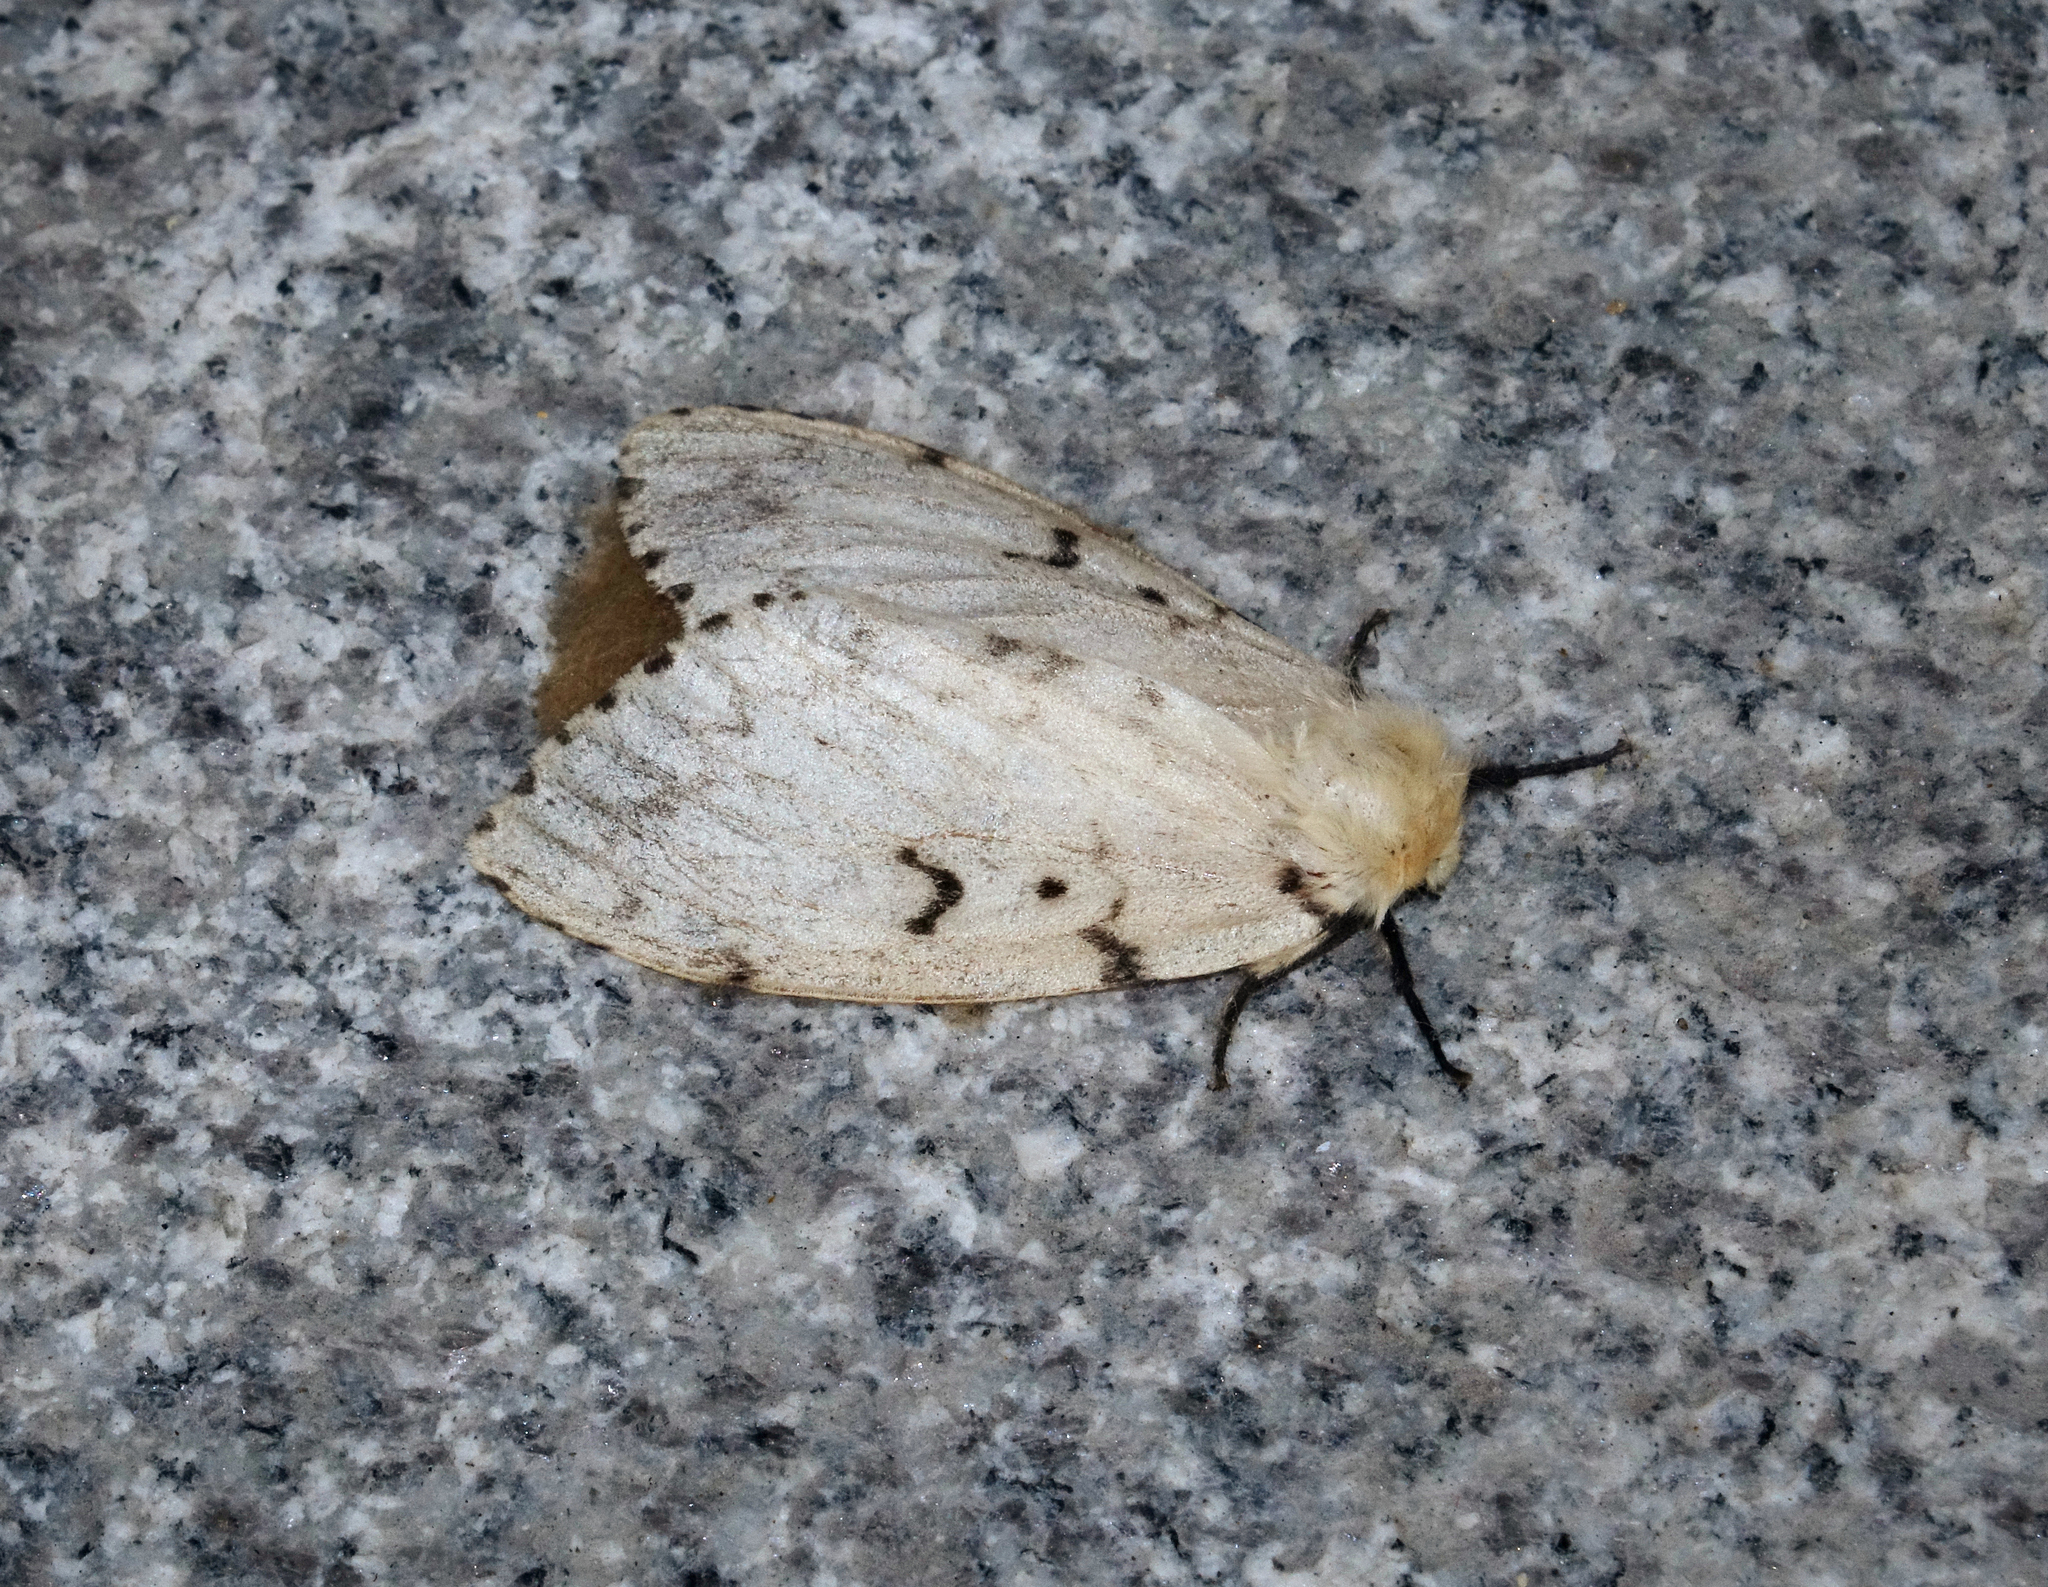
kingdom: Animalia
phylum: Arthropoda
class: Insecta
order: Lepidoptera
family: Erebidae
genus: Lymantria
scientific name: Lymantria dispar
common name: Gypsy moth
